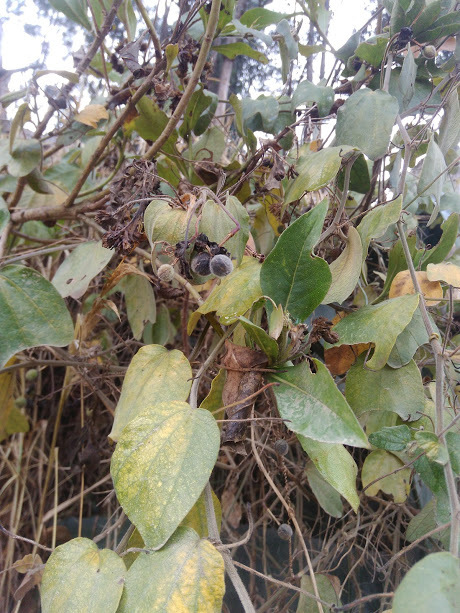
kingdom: Plantae
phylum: Tracheophyta
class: Magnoliopsida
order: Malpighiales
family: Passifloraceae
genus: Passiflora
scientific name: Passiflora bogotensis
